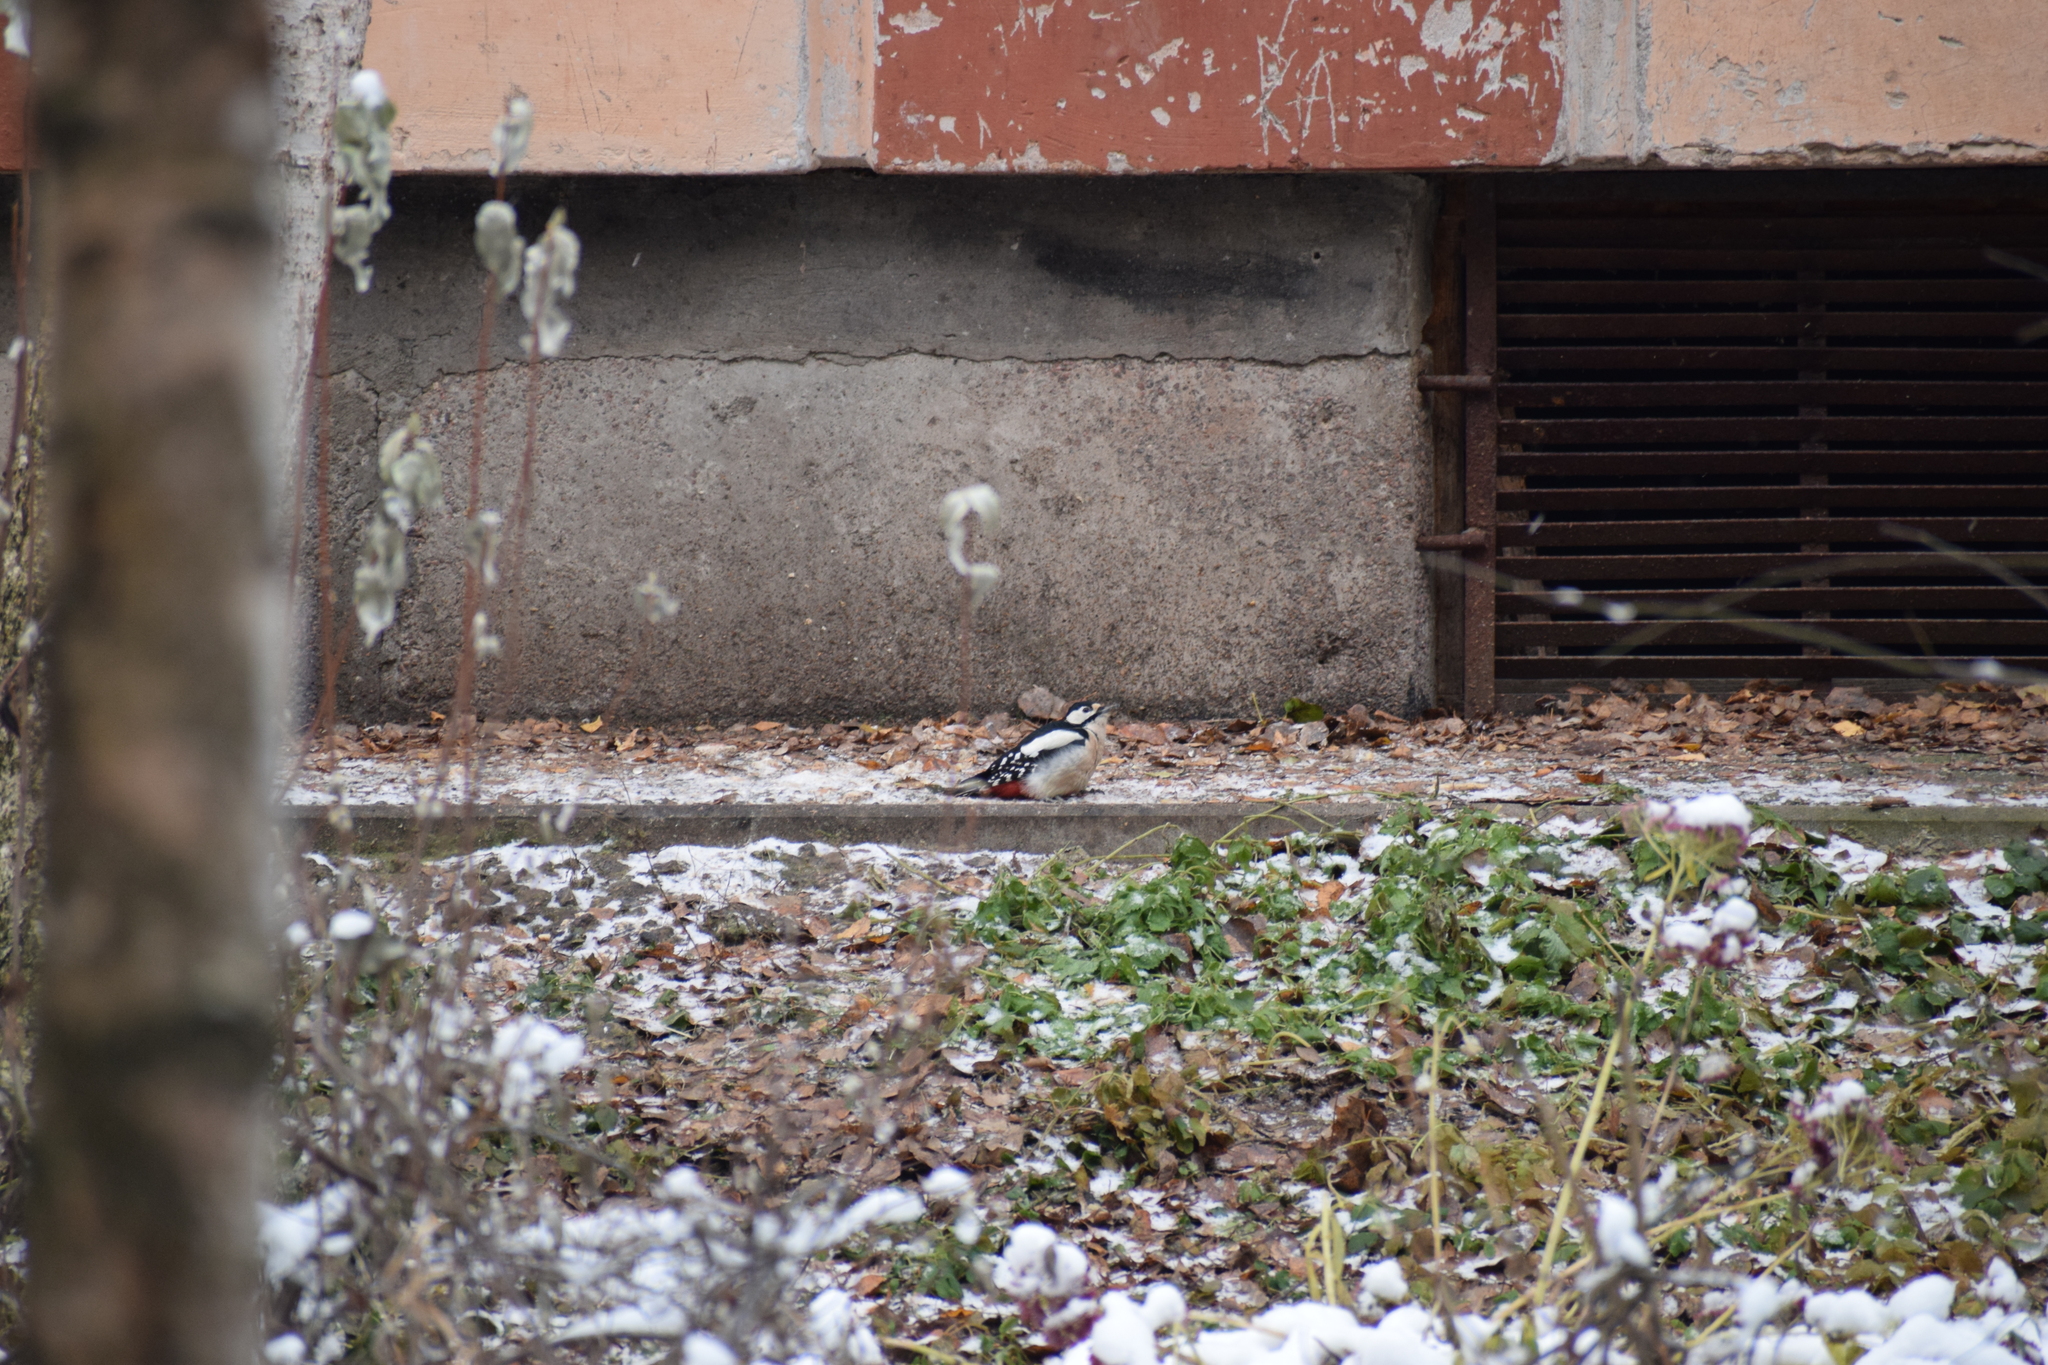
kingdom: Animalia
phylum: Chordata
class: Aves
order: Piciformes
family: Picidae
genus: Dendrocopos
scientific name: Dendrocopos major
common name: Great spotted woodpecker
